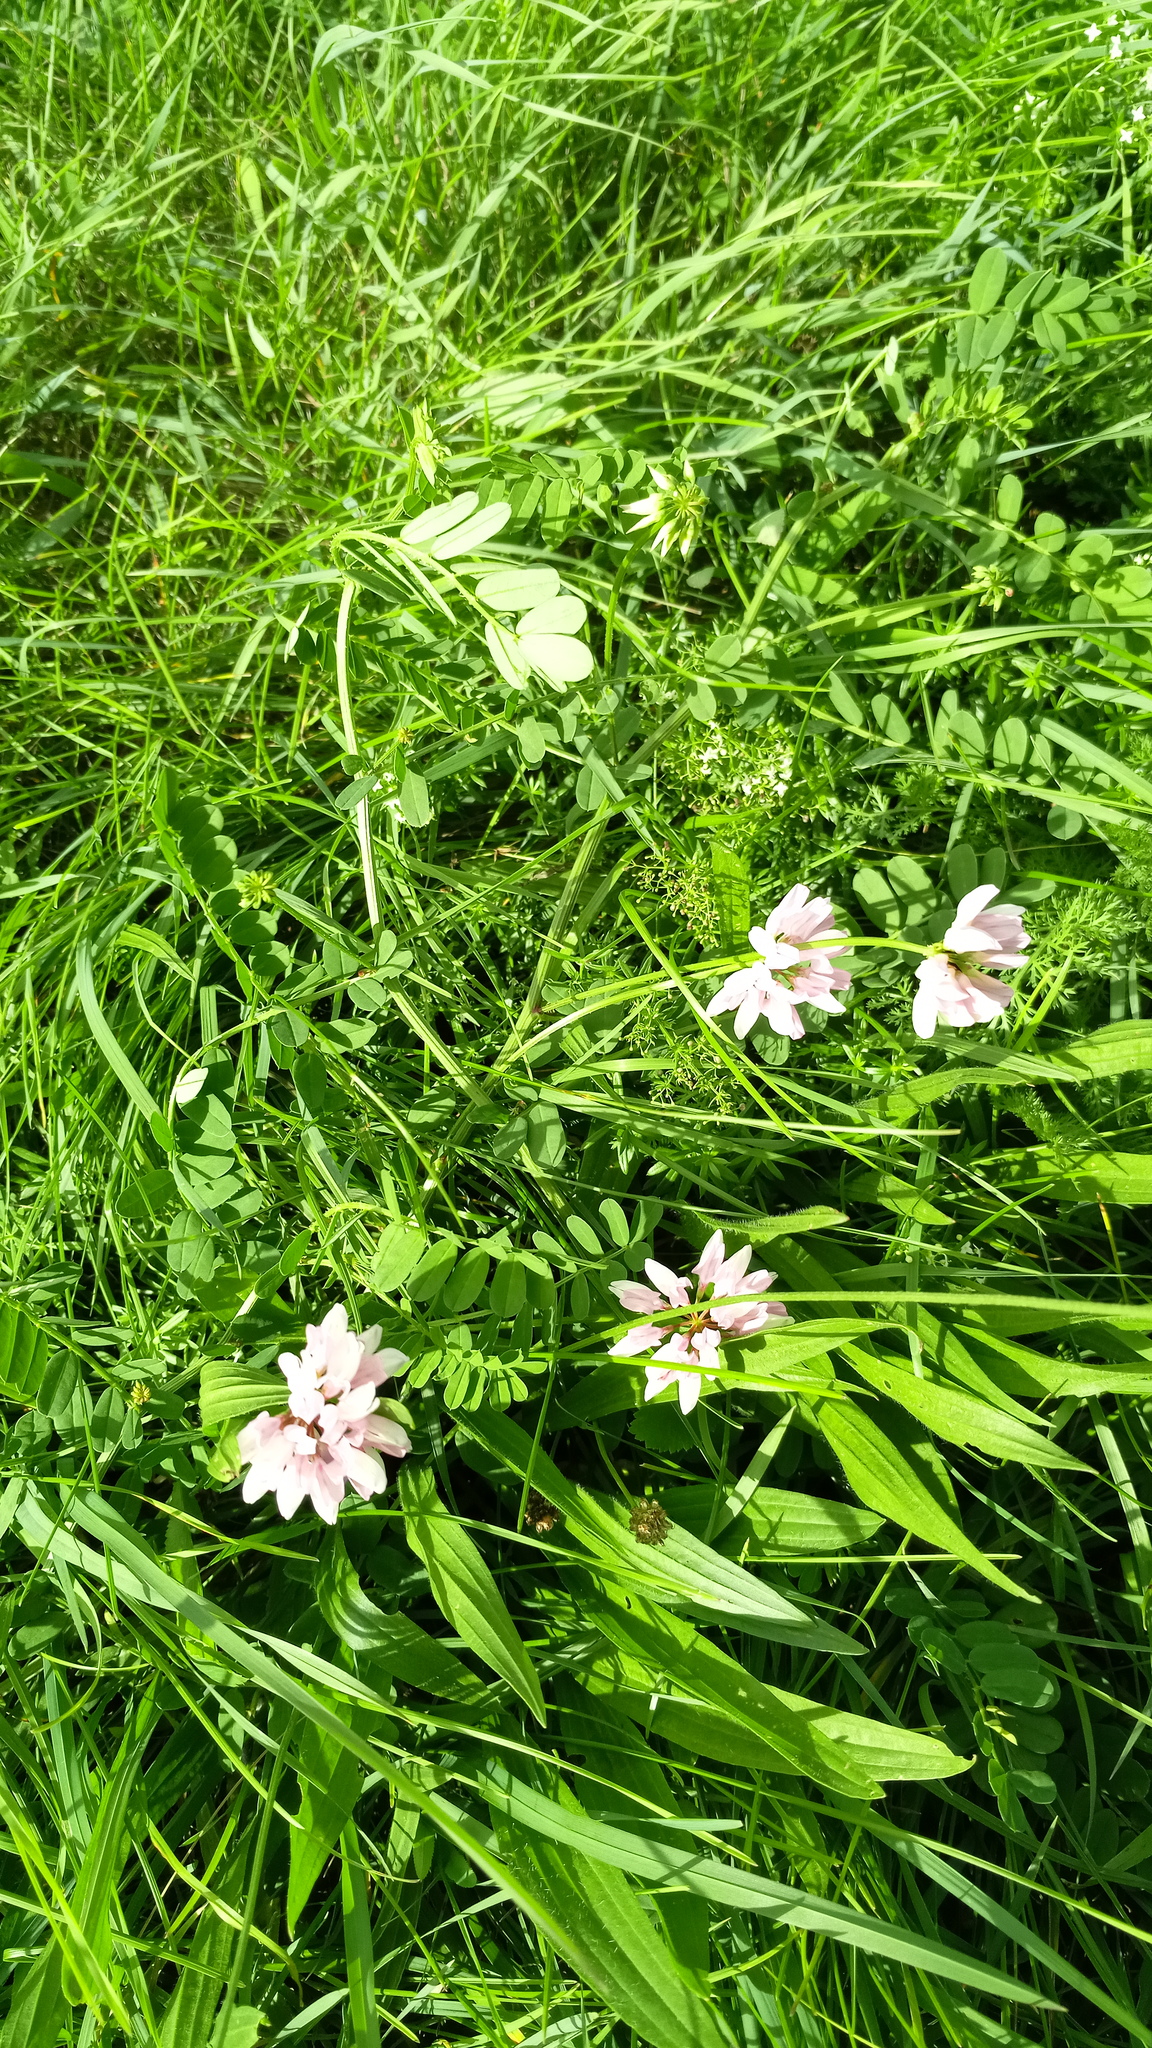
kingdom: Plantae
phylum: Tracheophyta
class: Magnoliopsida
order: Fabales
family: Fabaceae
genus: Coronilla
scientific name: Coronilla varia
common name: Crownvetch
